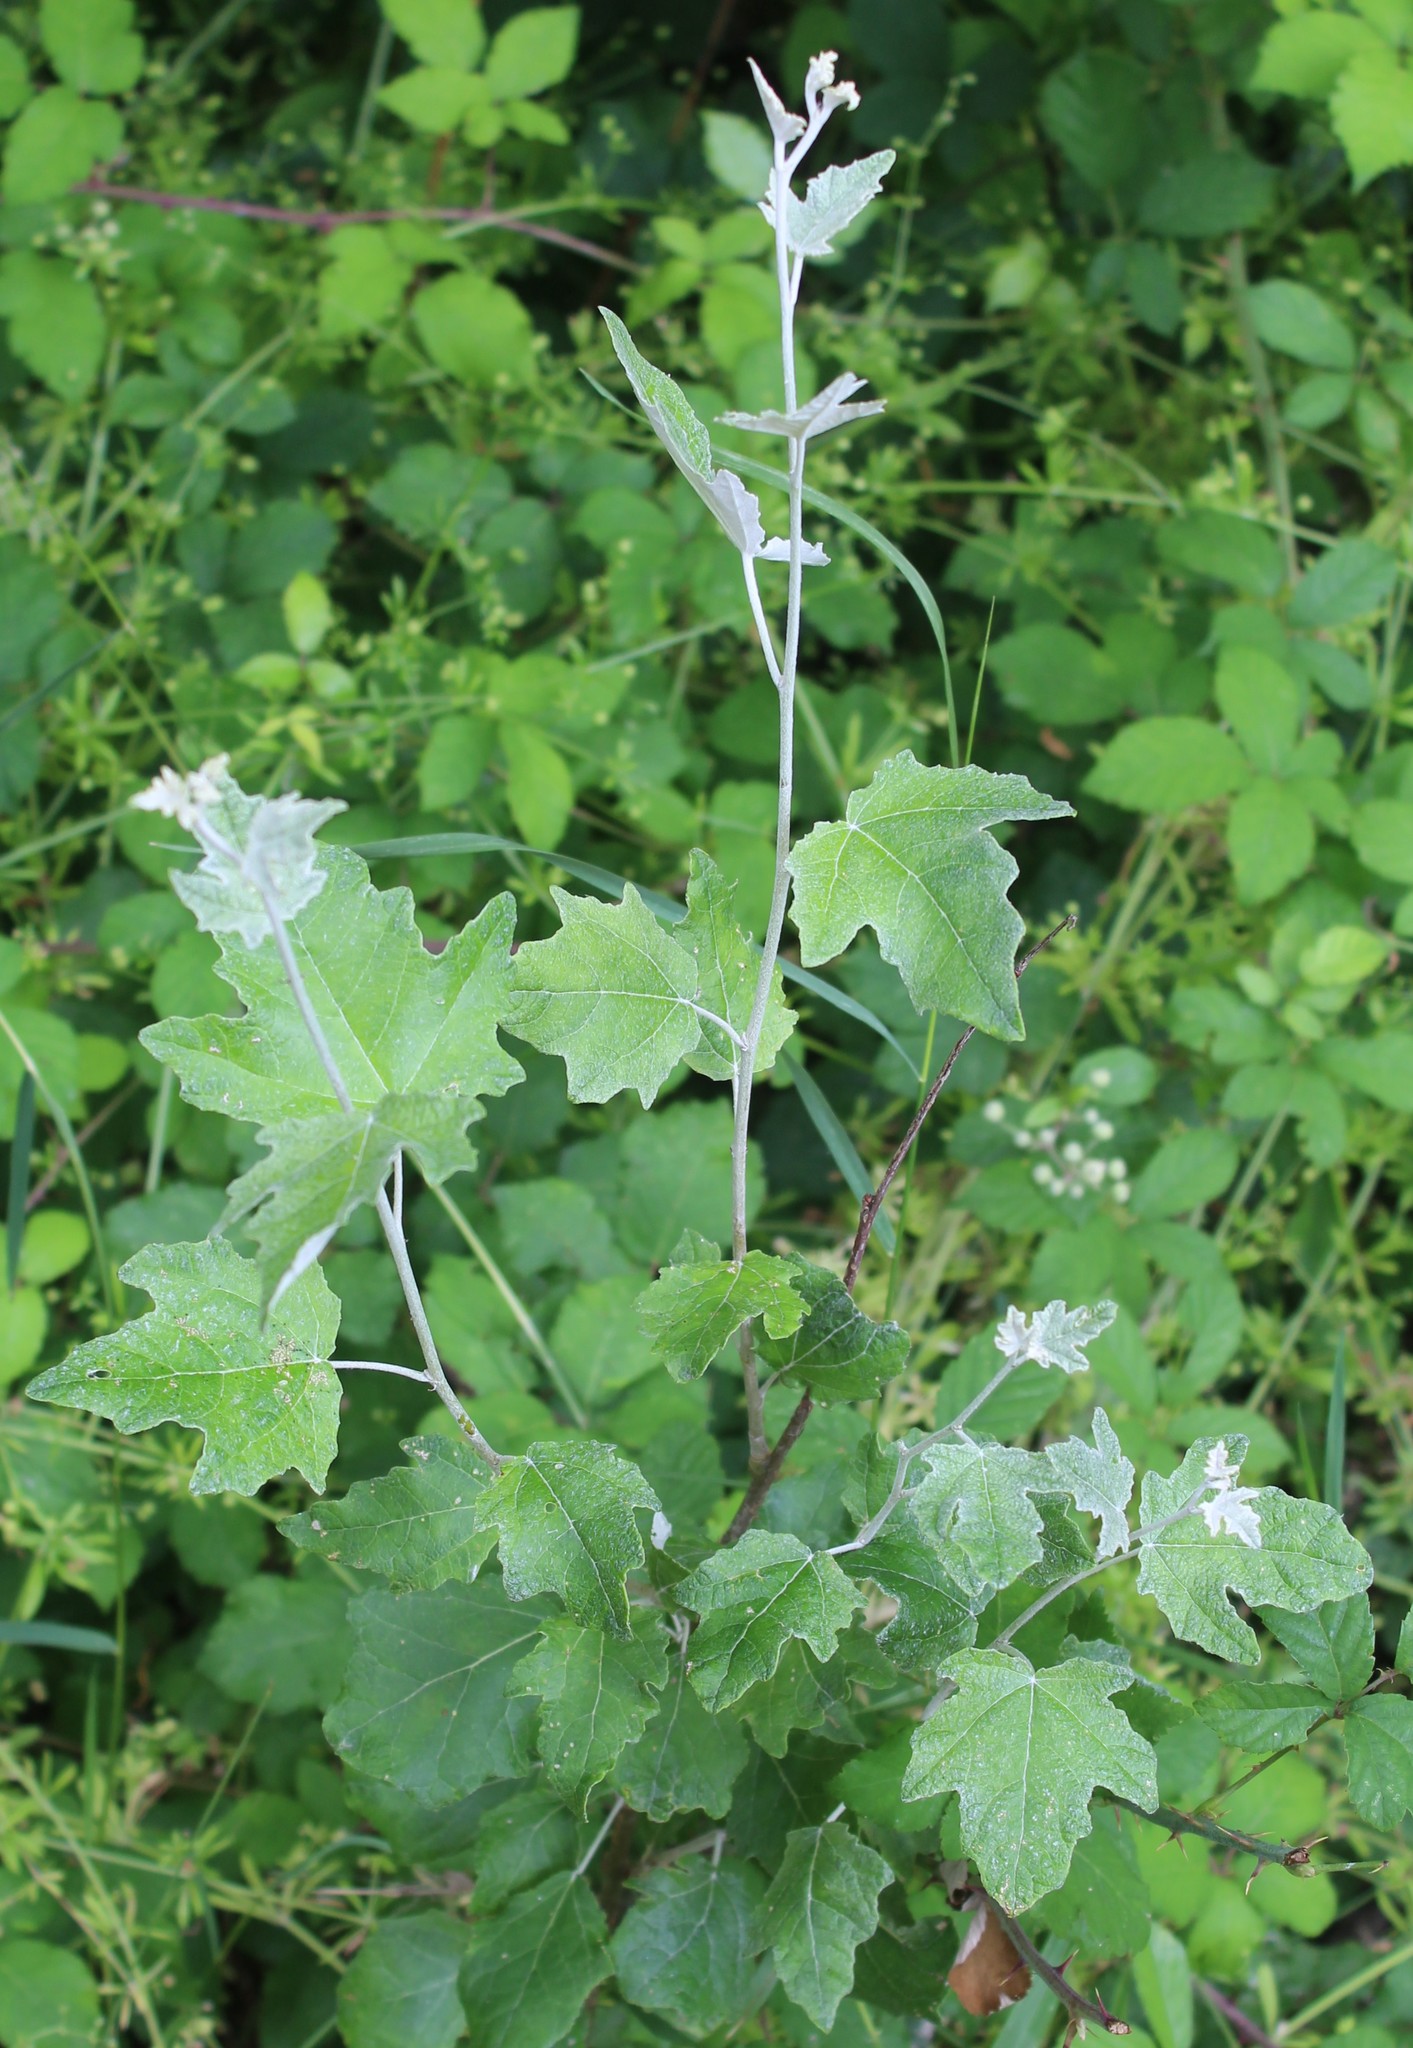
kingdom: Plantae
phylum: Tracheophyta
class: Magnoliopsida
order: Malpighiales
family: Salicaceae
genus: Populus
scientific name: Populus alba
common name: White poplar
